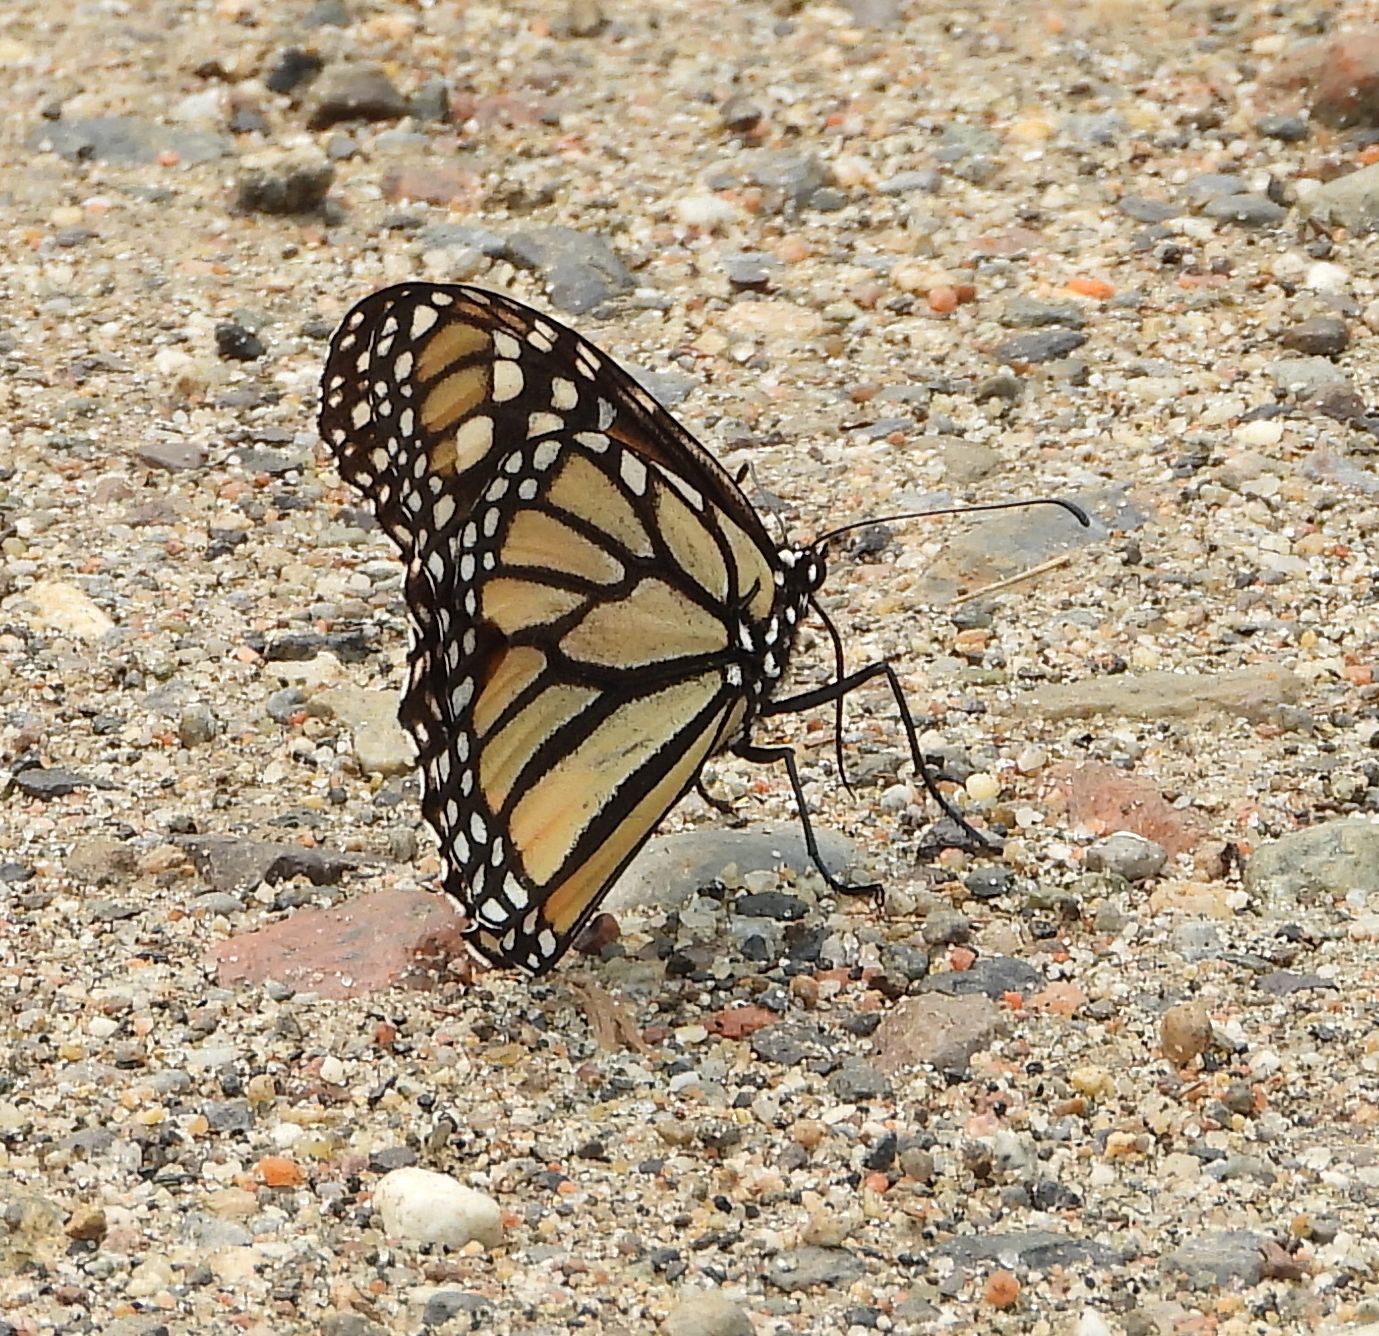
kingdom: Animalia
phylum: Arthropoda
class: Insecta
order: Lepidoptera
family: Nymphalidae
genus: Danaus
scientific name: Danaus plexippus
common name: Monarch
